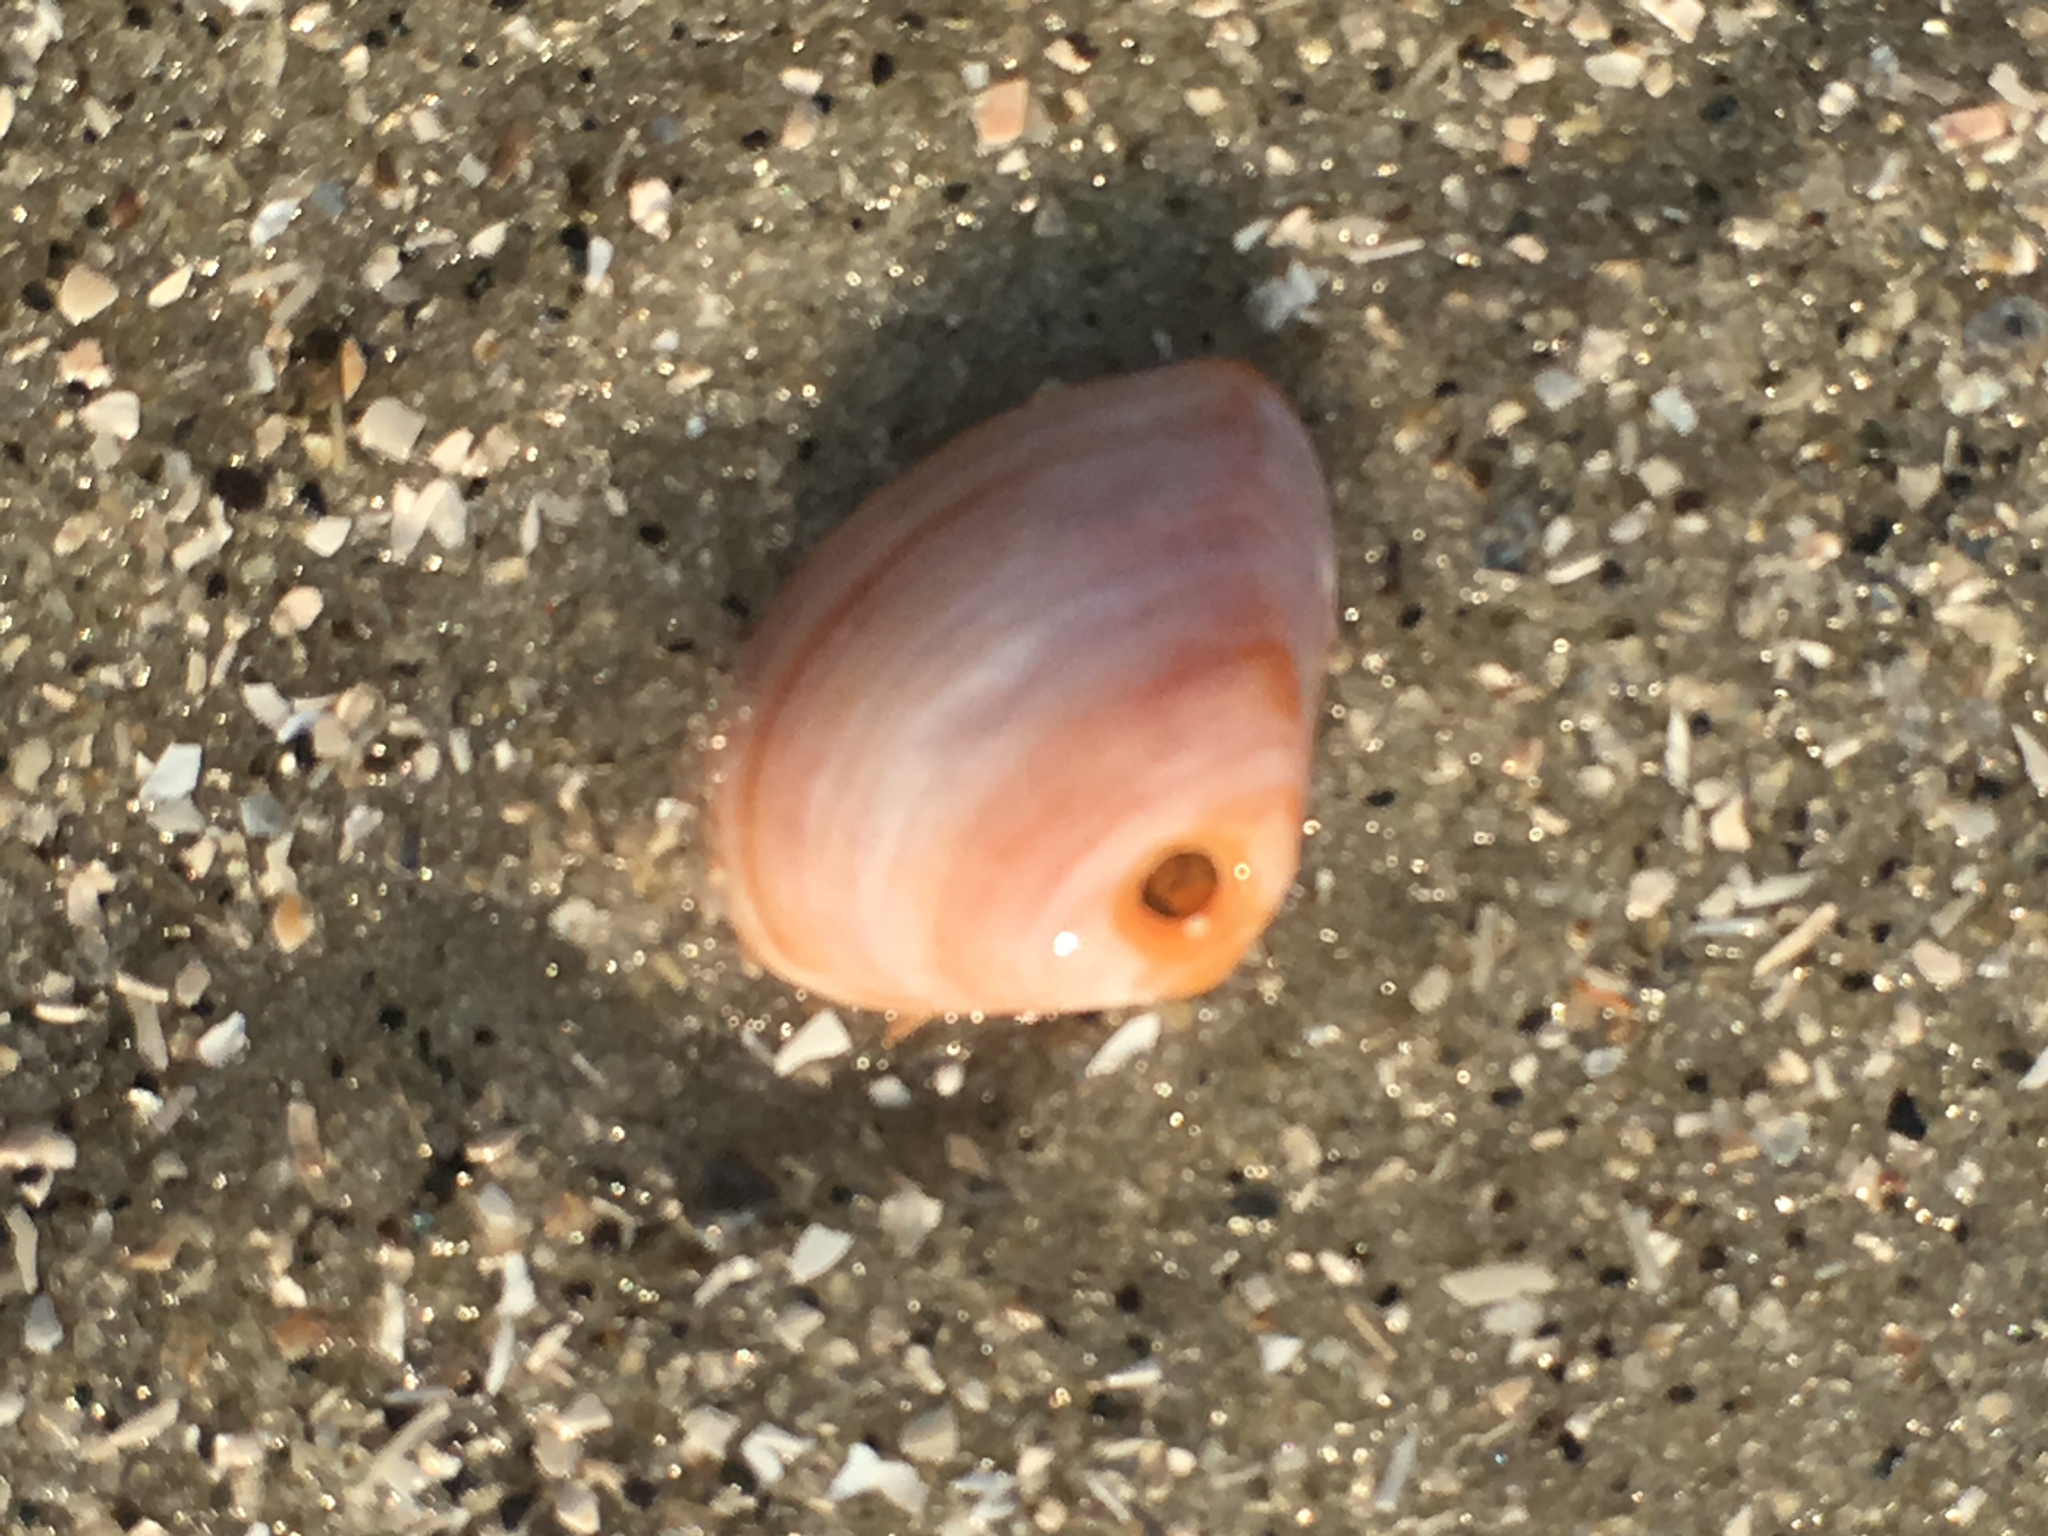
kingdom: Animalia
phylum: Mollusca
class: Bivalvia
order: Venerida
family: Mactridae
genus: Mulinia
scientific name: Mulinia lateralis
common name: Dwarf surfclam
